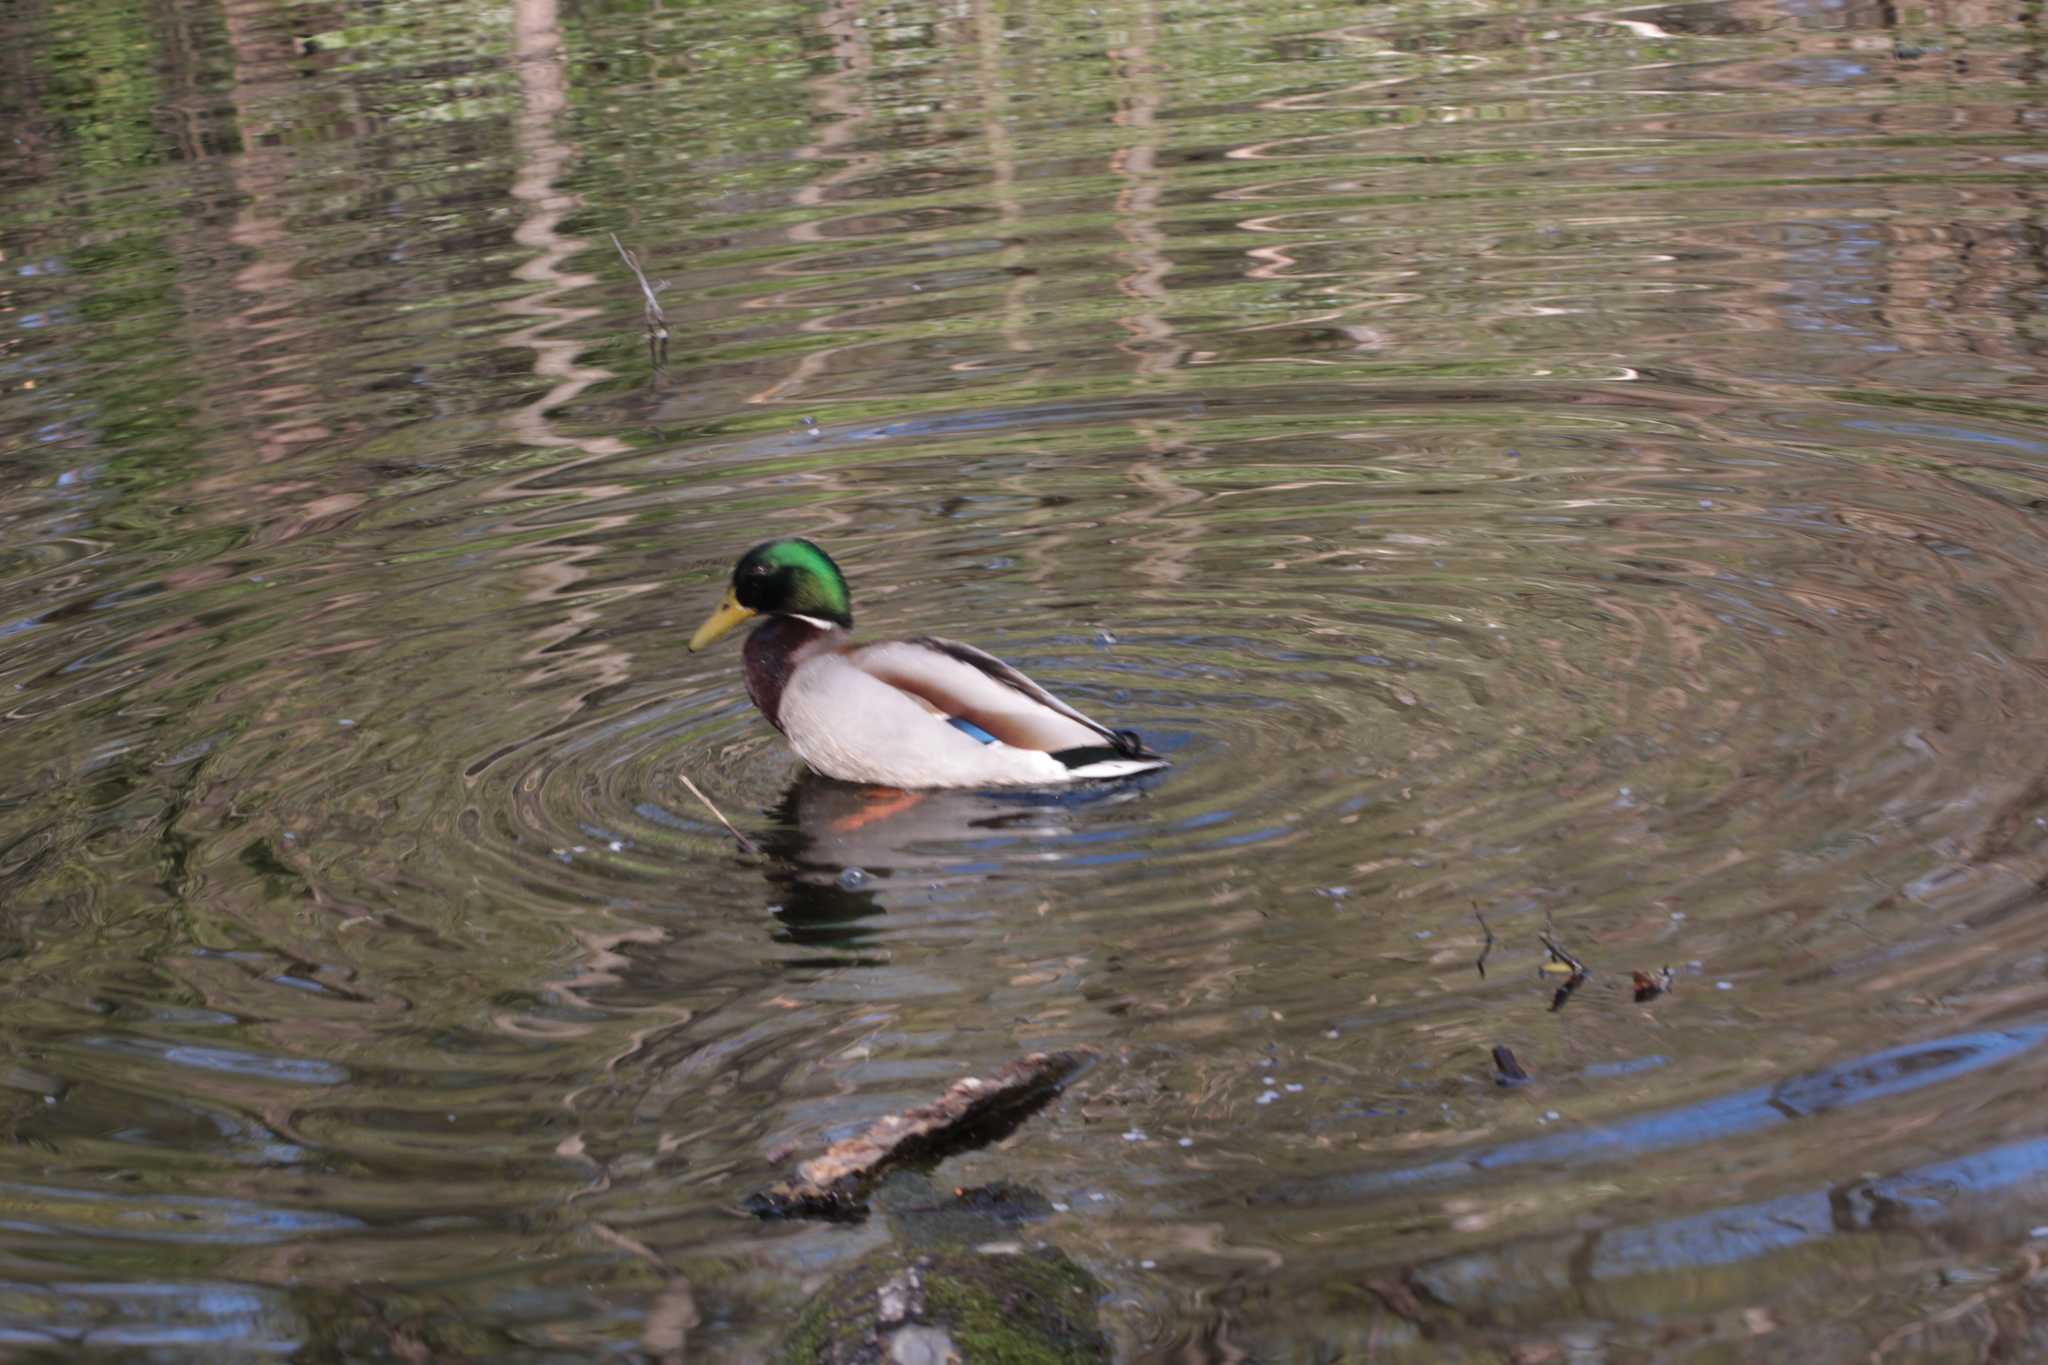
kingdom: Animalia
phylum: Chordata
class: Aves
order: Anseriformes
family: Anatidae
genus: Anas
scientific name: Anas platyrhynchos
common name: Mallard
